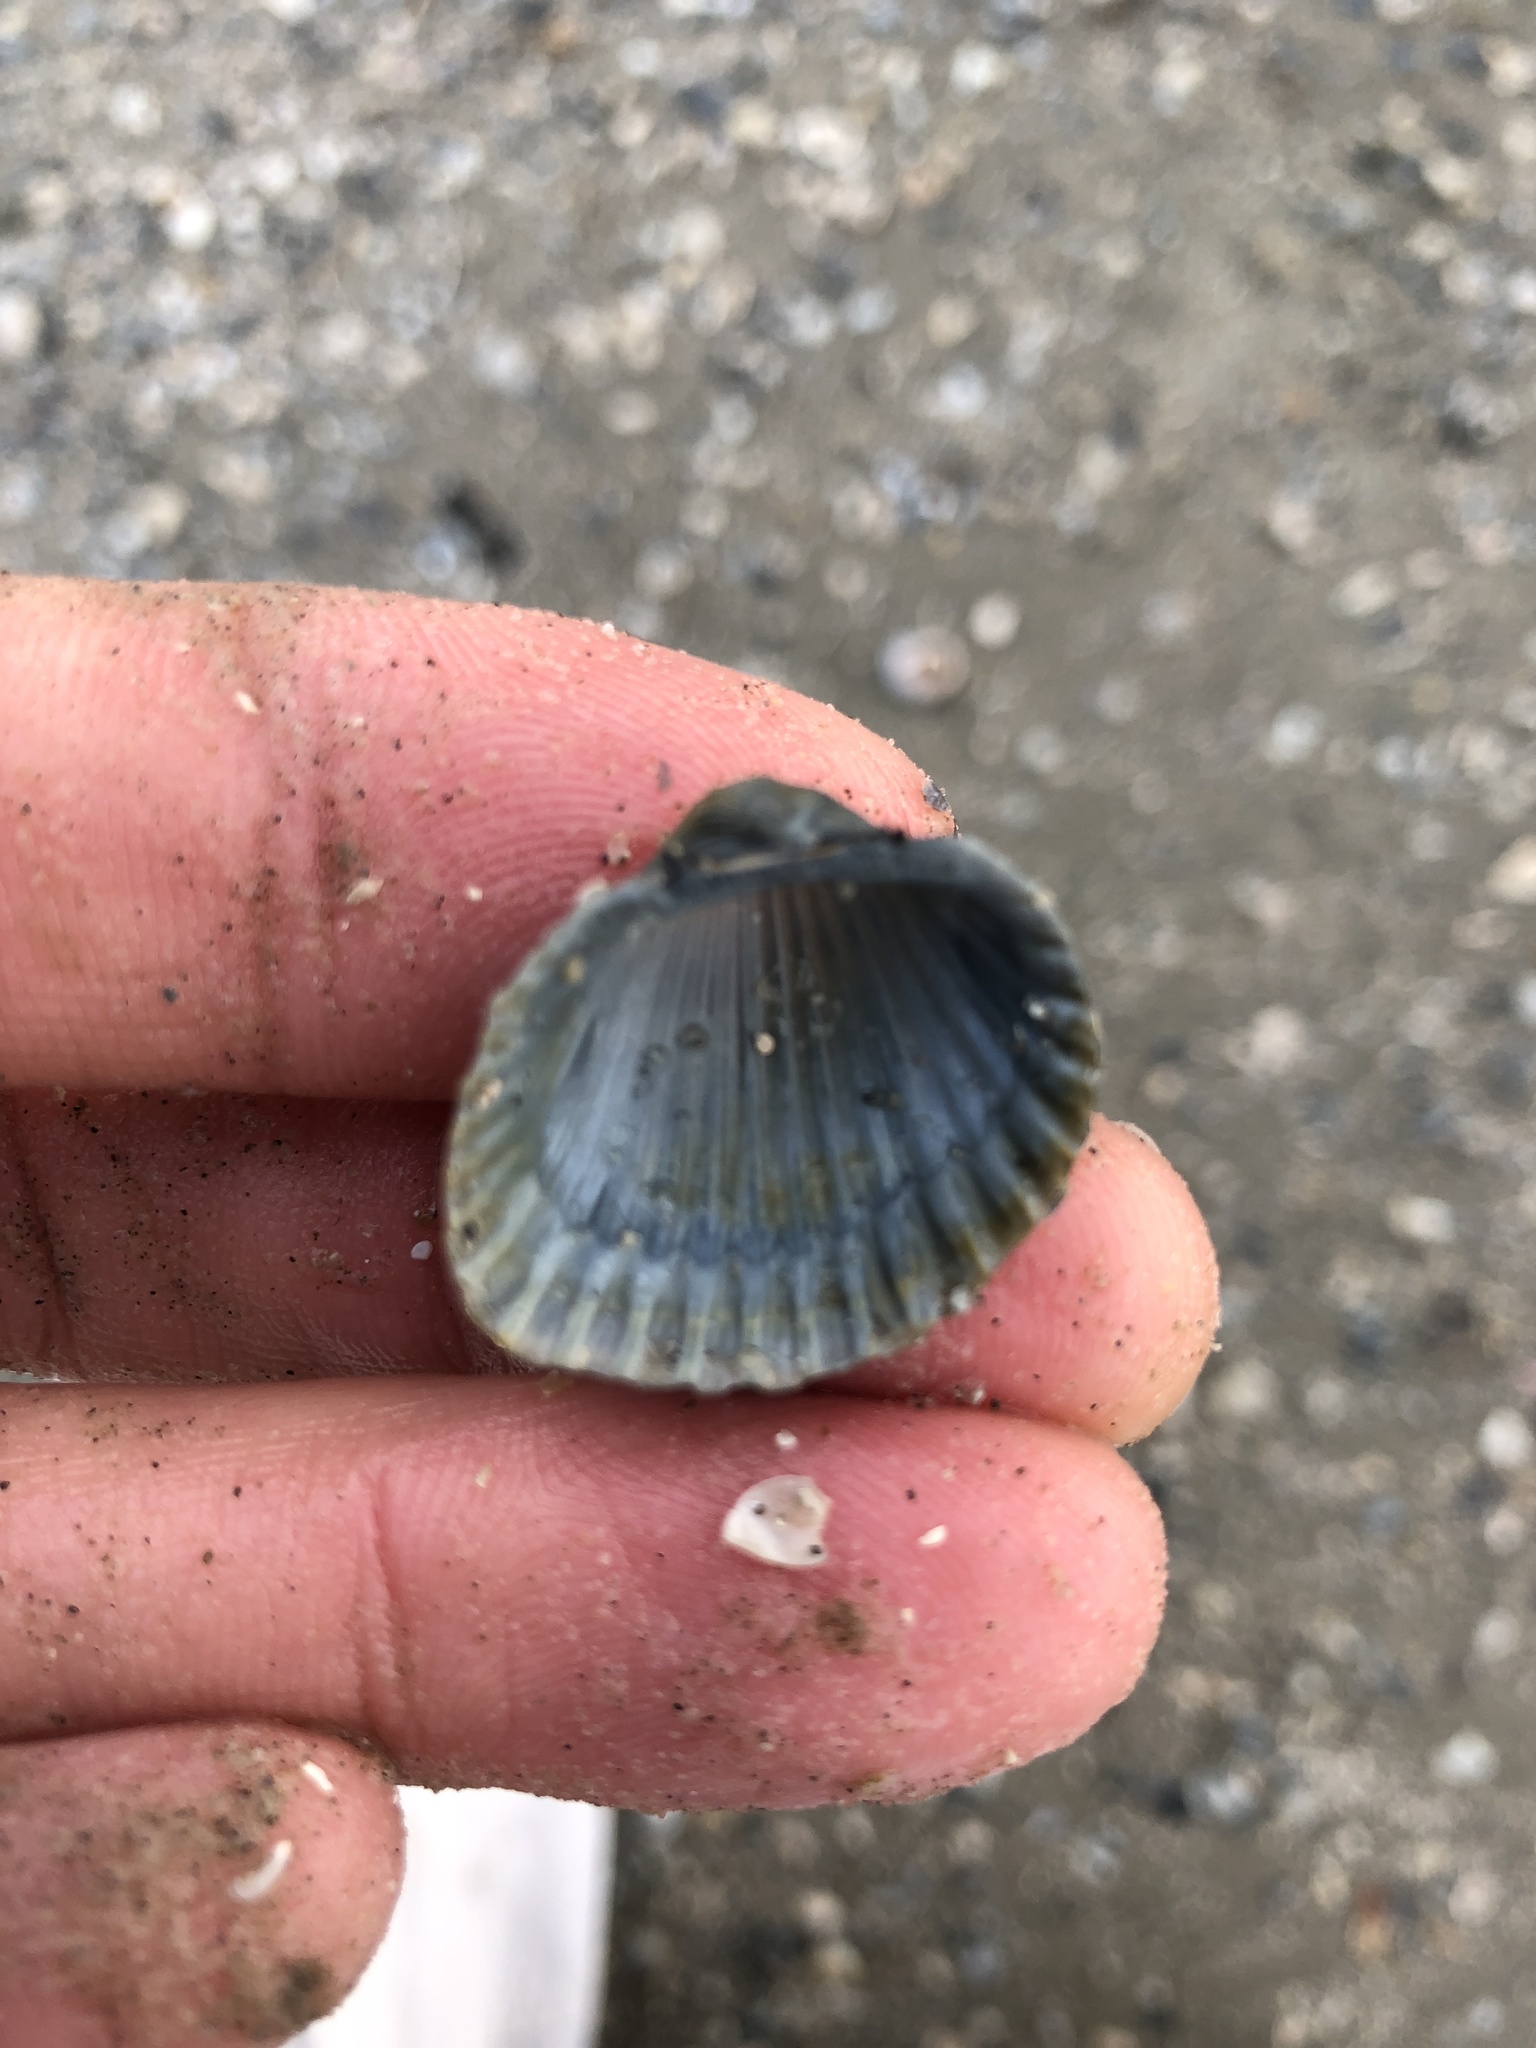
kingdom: Animalia
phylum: Mollusca
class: Bivalvia
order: Arcida
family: Arcidae
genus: Anadara
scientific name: Anadara brasiliana
